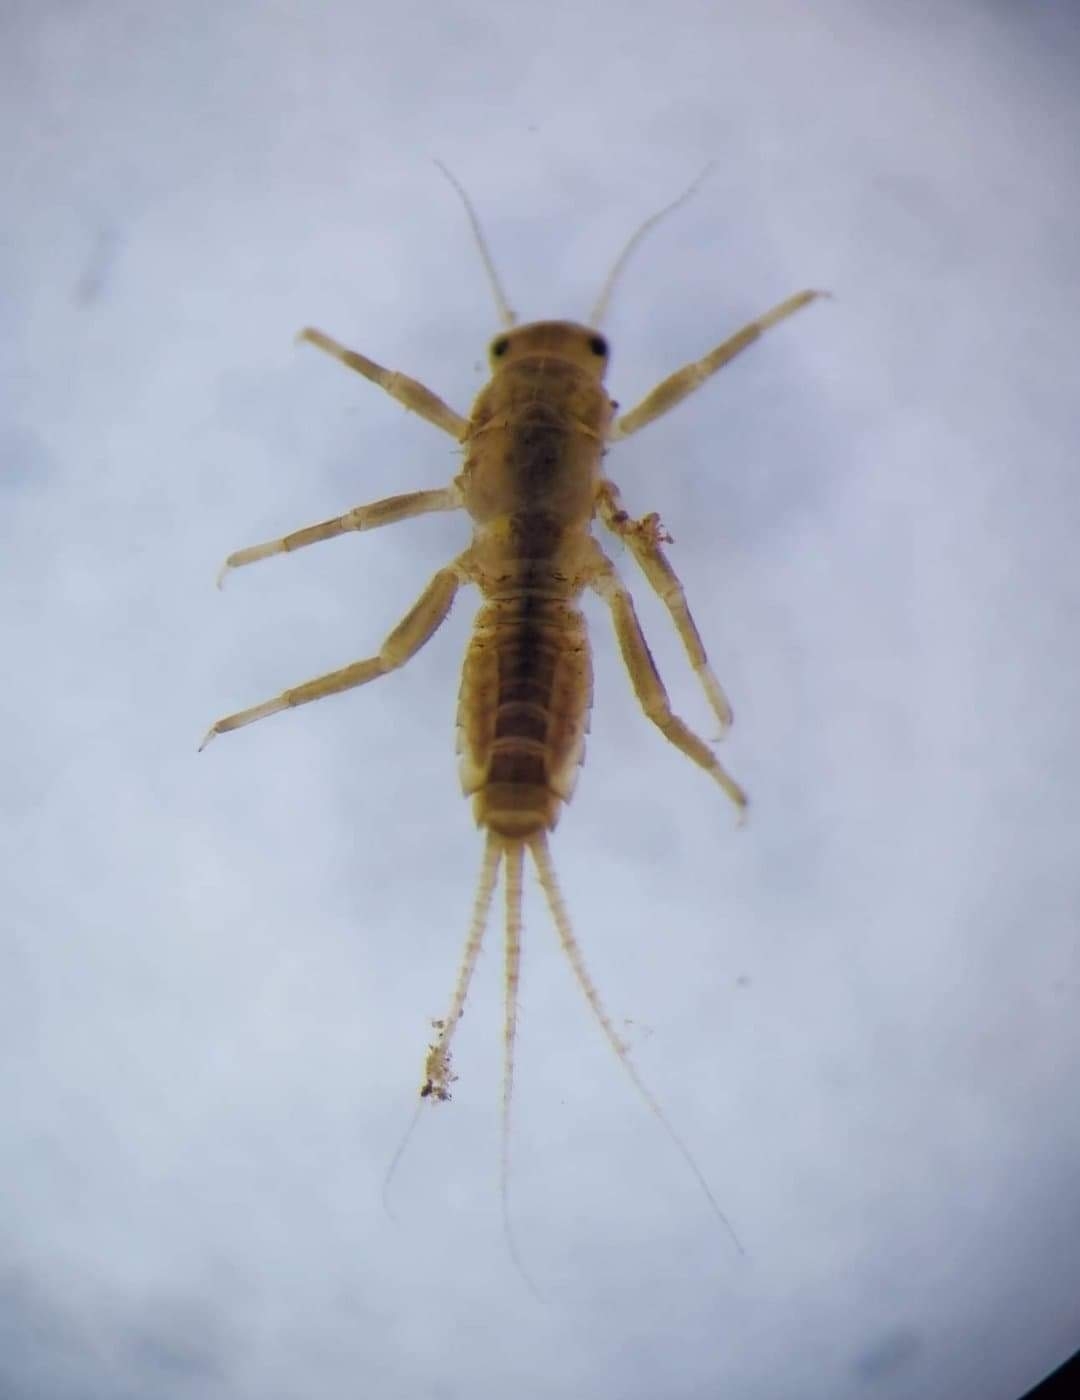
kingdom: Animalia
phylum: Arthropoda
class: Insecta
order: Ephemeroptera
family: Ephemerellidae
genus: Ephemerella
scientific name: Ephemerella notata
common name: Yellow evening hawk
